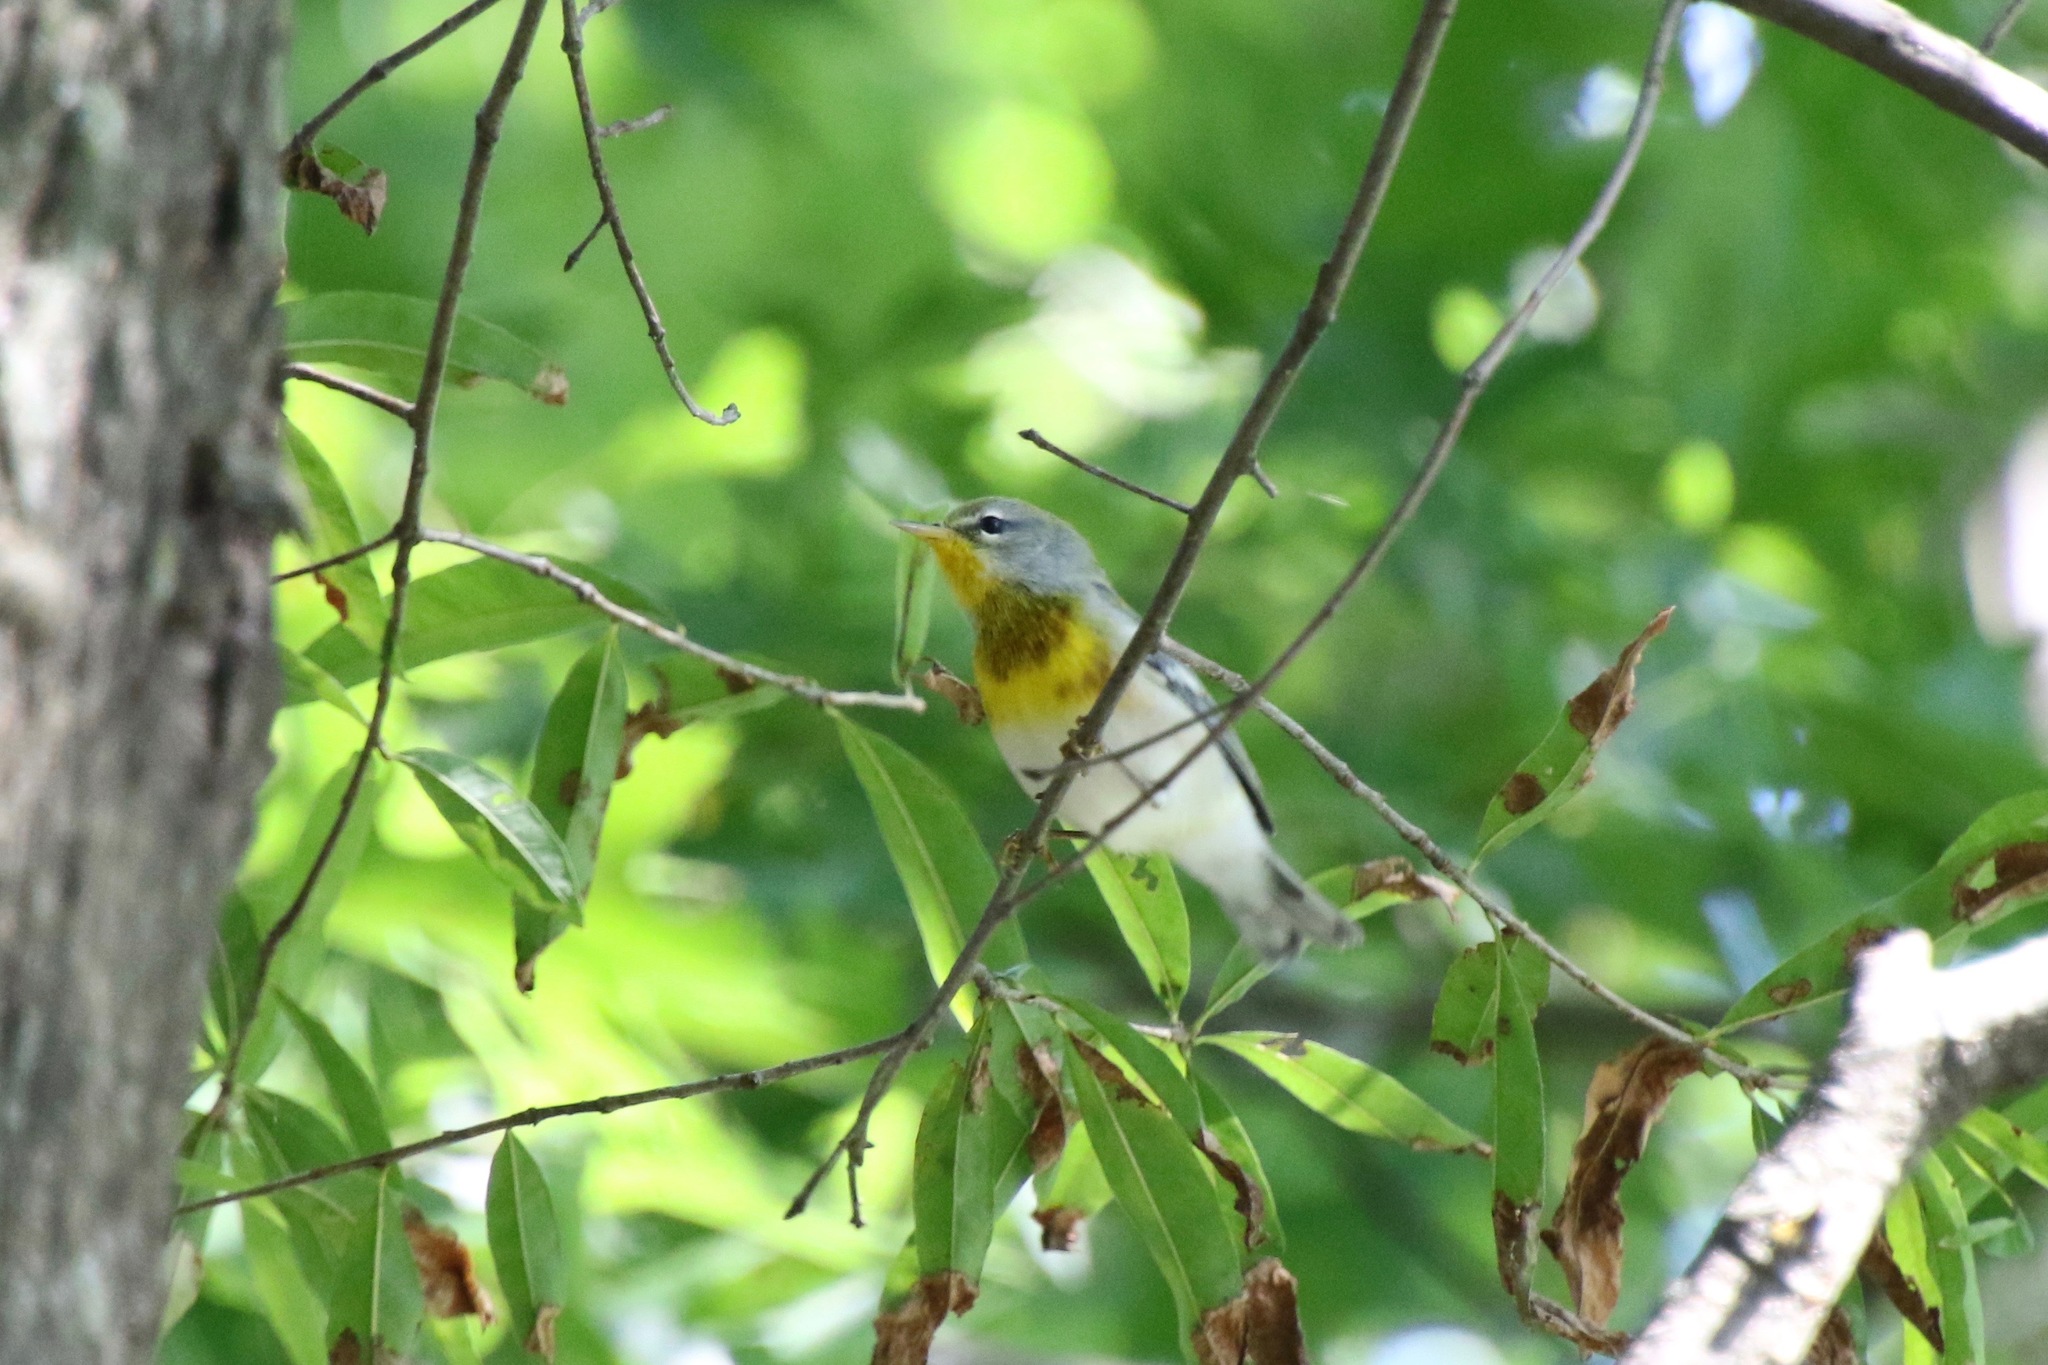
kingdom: Animalia
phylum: Chordata
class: Aves
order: Passeriformes
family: Parulidae
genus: Setophaga
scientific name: Setophaga americana
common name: Northern parula
